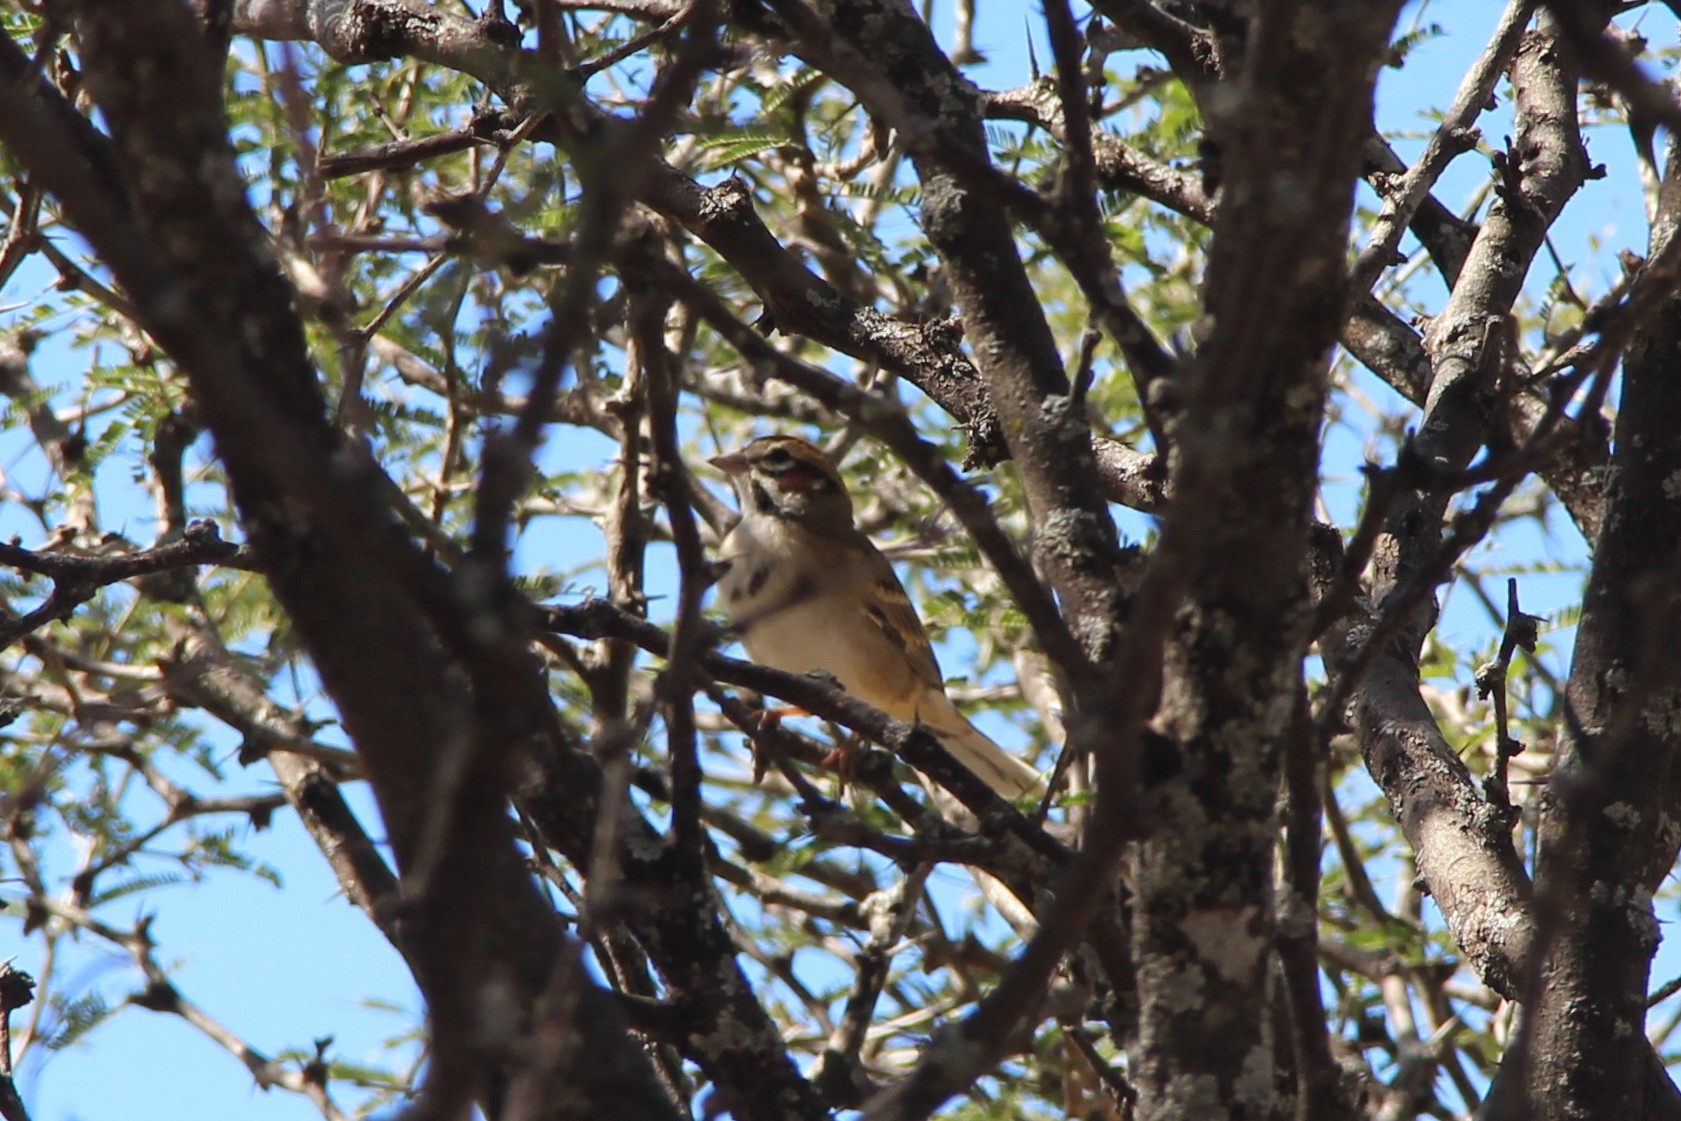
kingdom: Animalia
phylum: Chordata
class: Aves
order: Passeriformes
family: Passerellidae
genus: Chondestes
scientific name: Chondestes grammacus
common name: Lark sparrow
